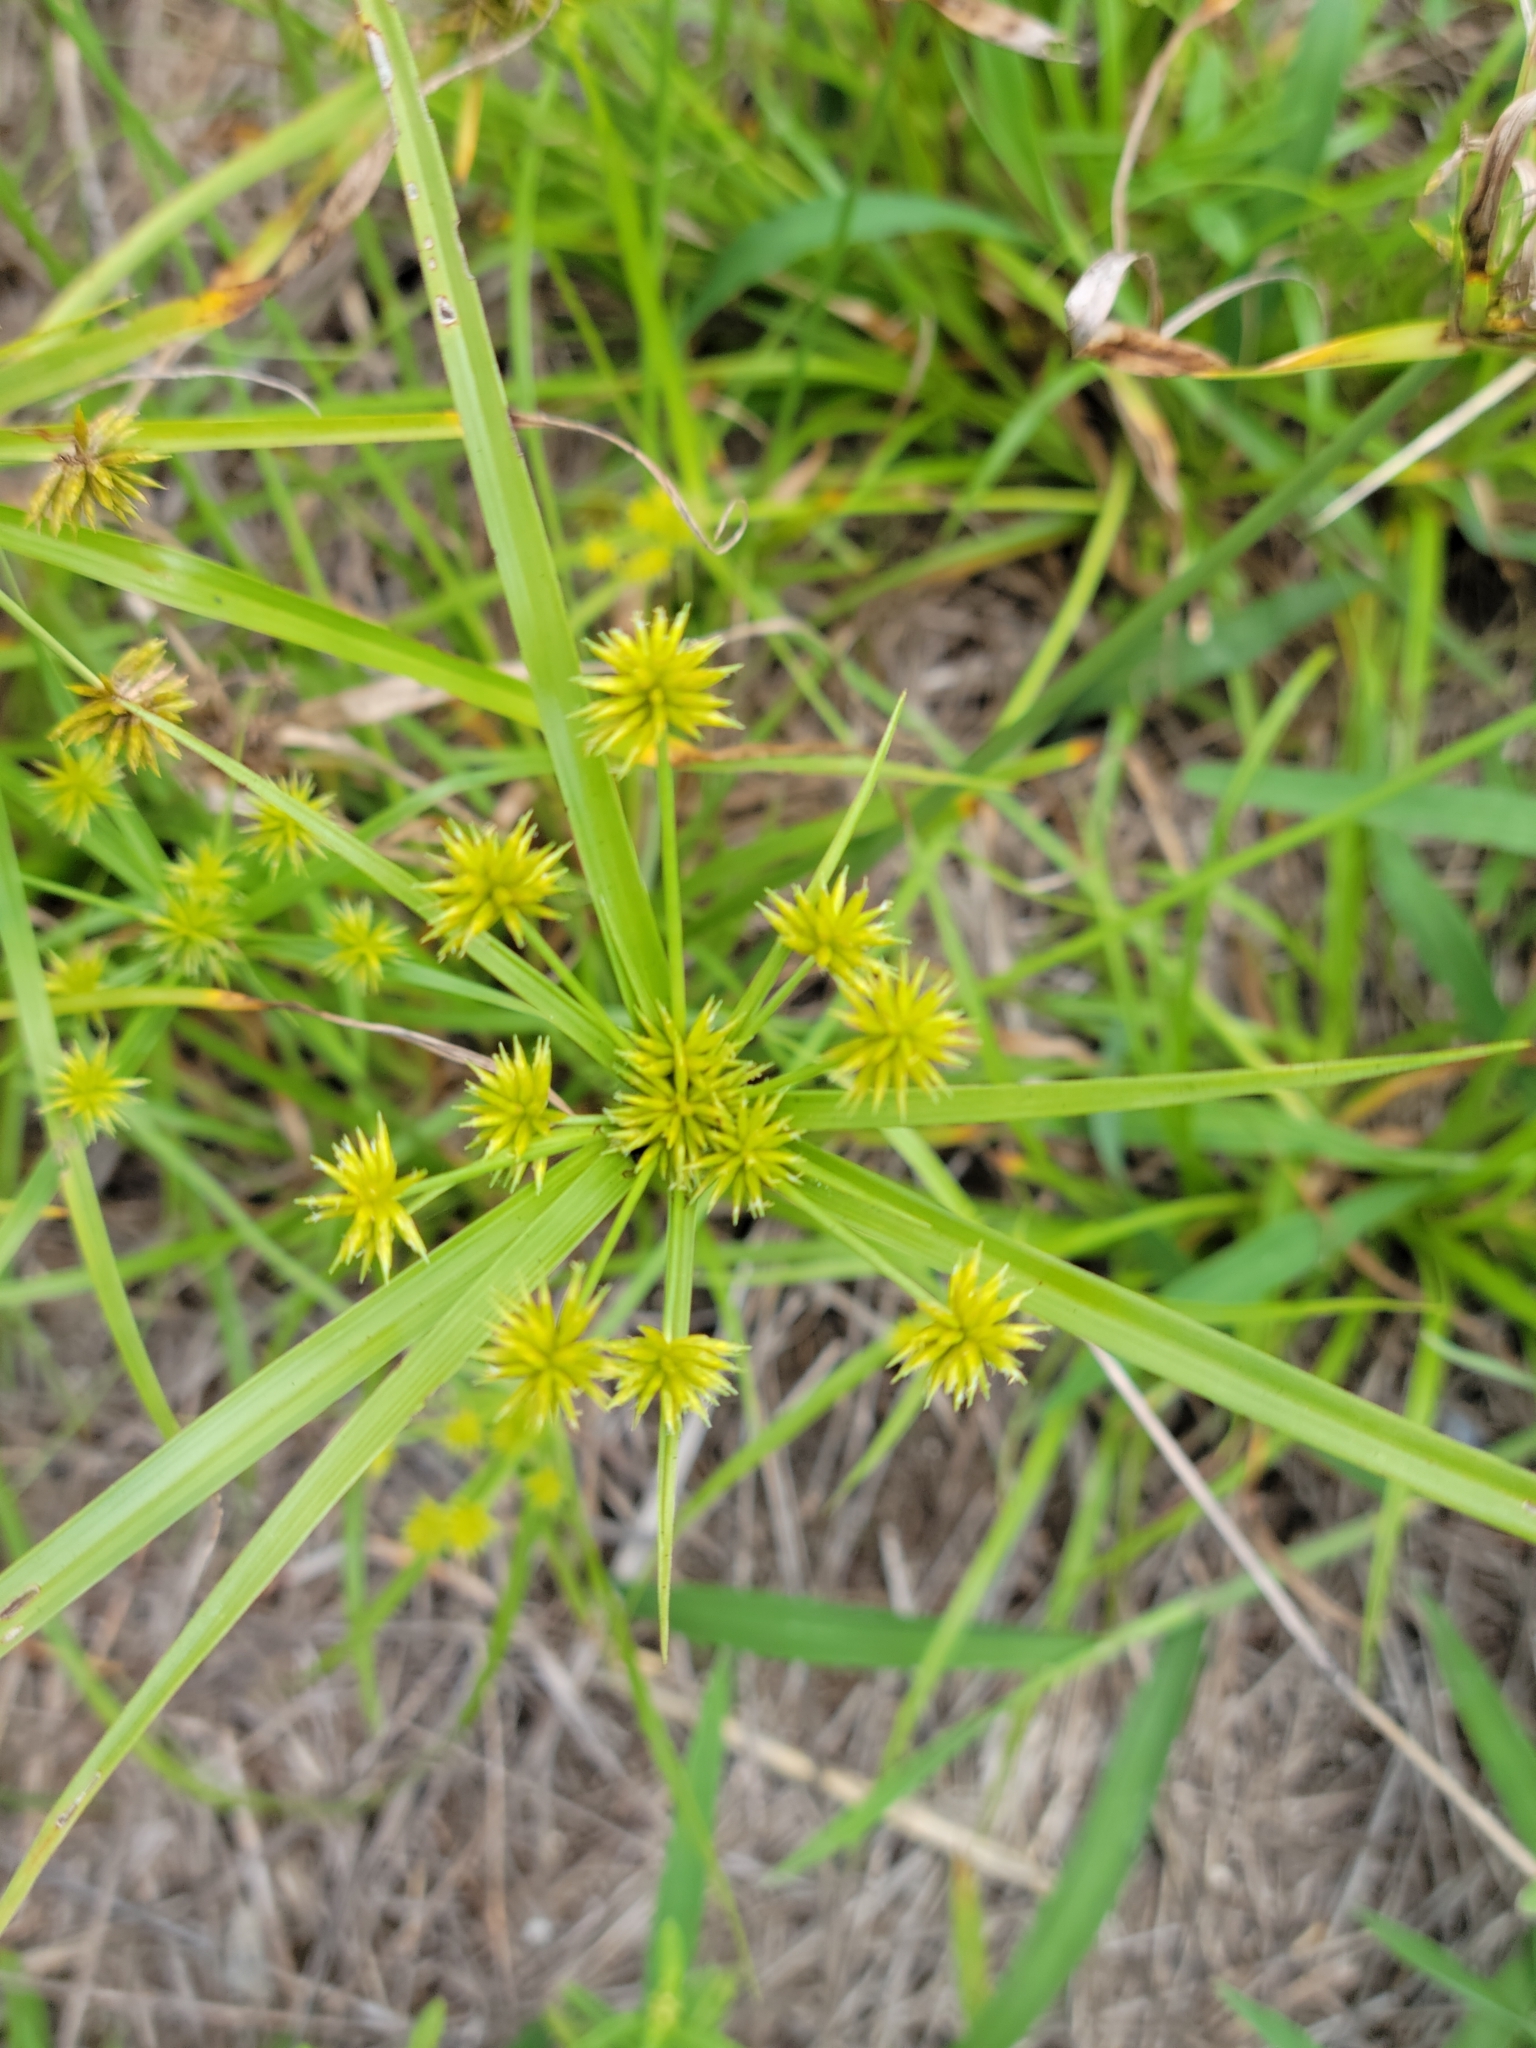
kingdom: Plantae
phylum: Tracheophyta
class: Liliopsida
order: Poales
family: Cyperaceae
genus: Cyperus
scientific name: Cyperus croceus
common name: Baldwin's flatsedge
